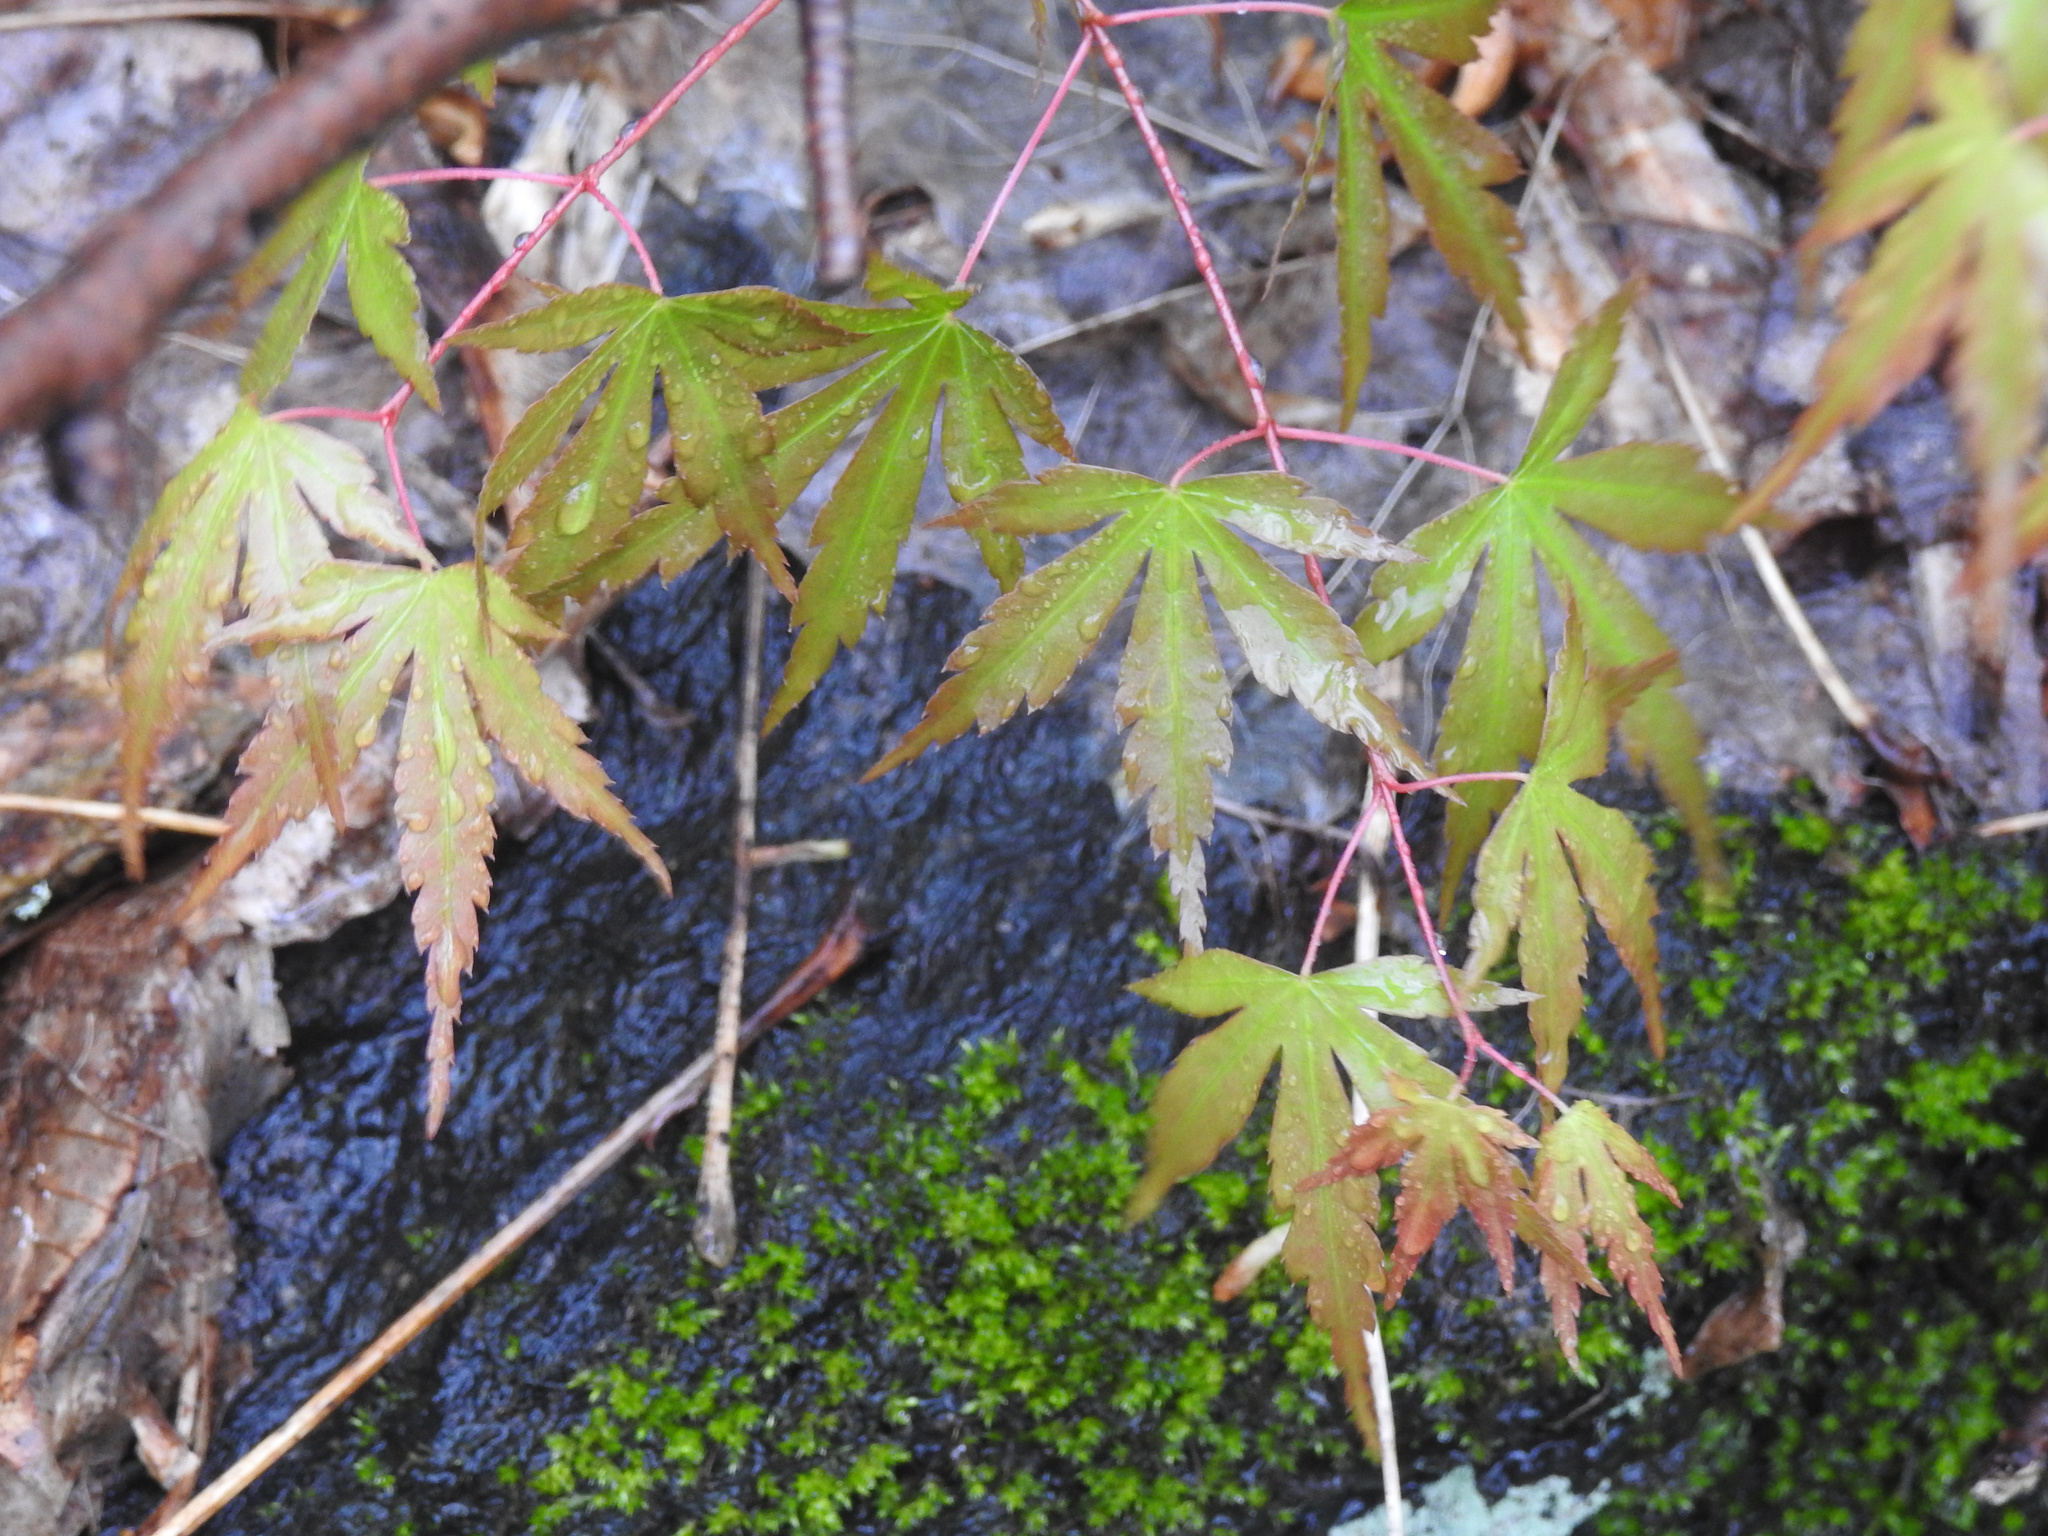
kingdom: Plantae
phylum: Tracheophyta
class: Magnoliopsida
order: Sapindales
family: Sapindaceae
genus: Acer
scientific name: Acer palmatum
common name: Japanese maple
